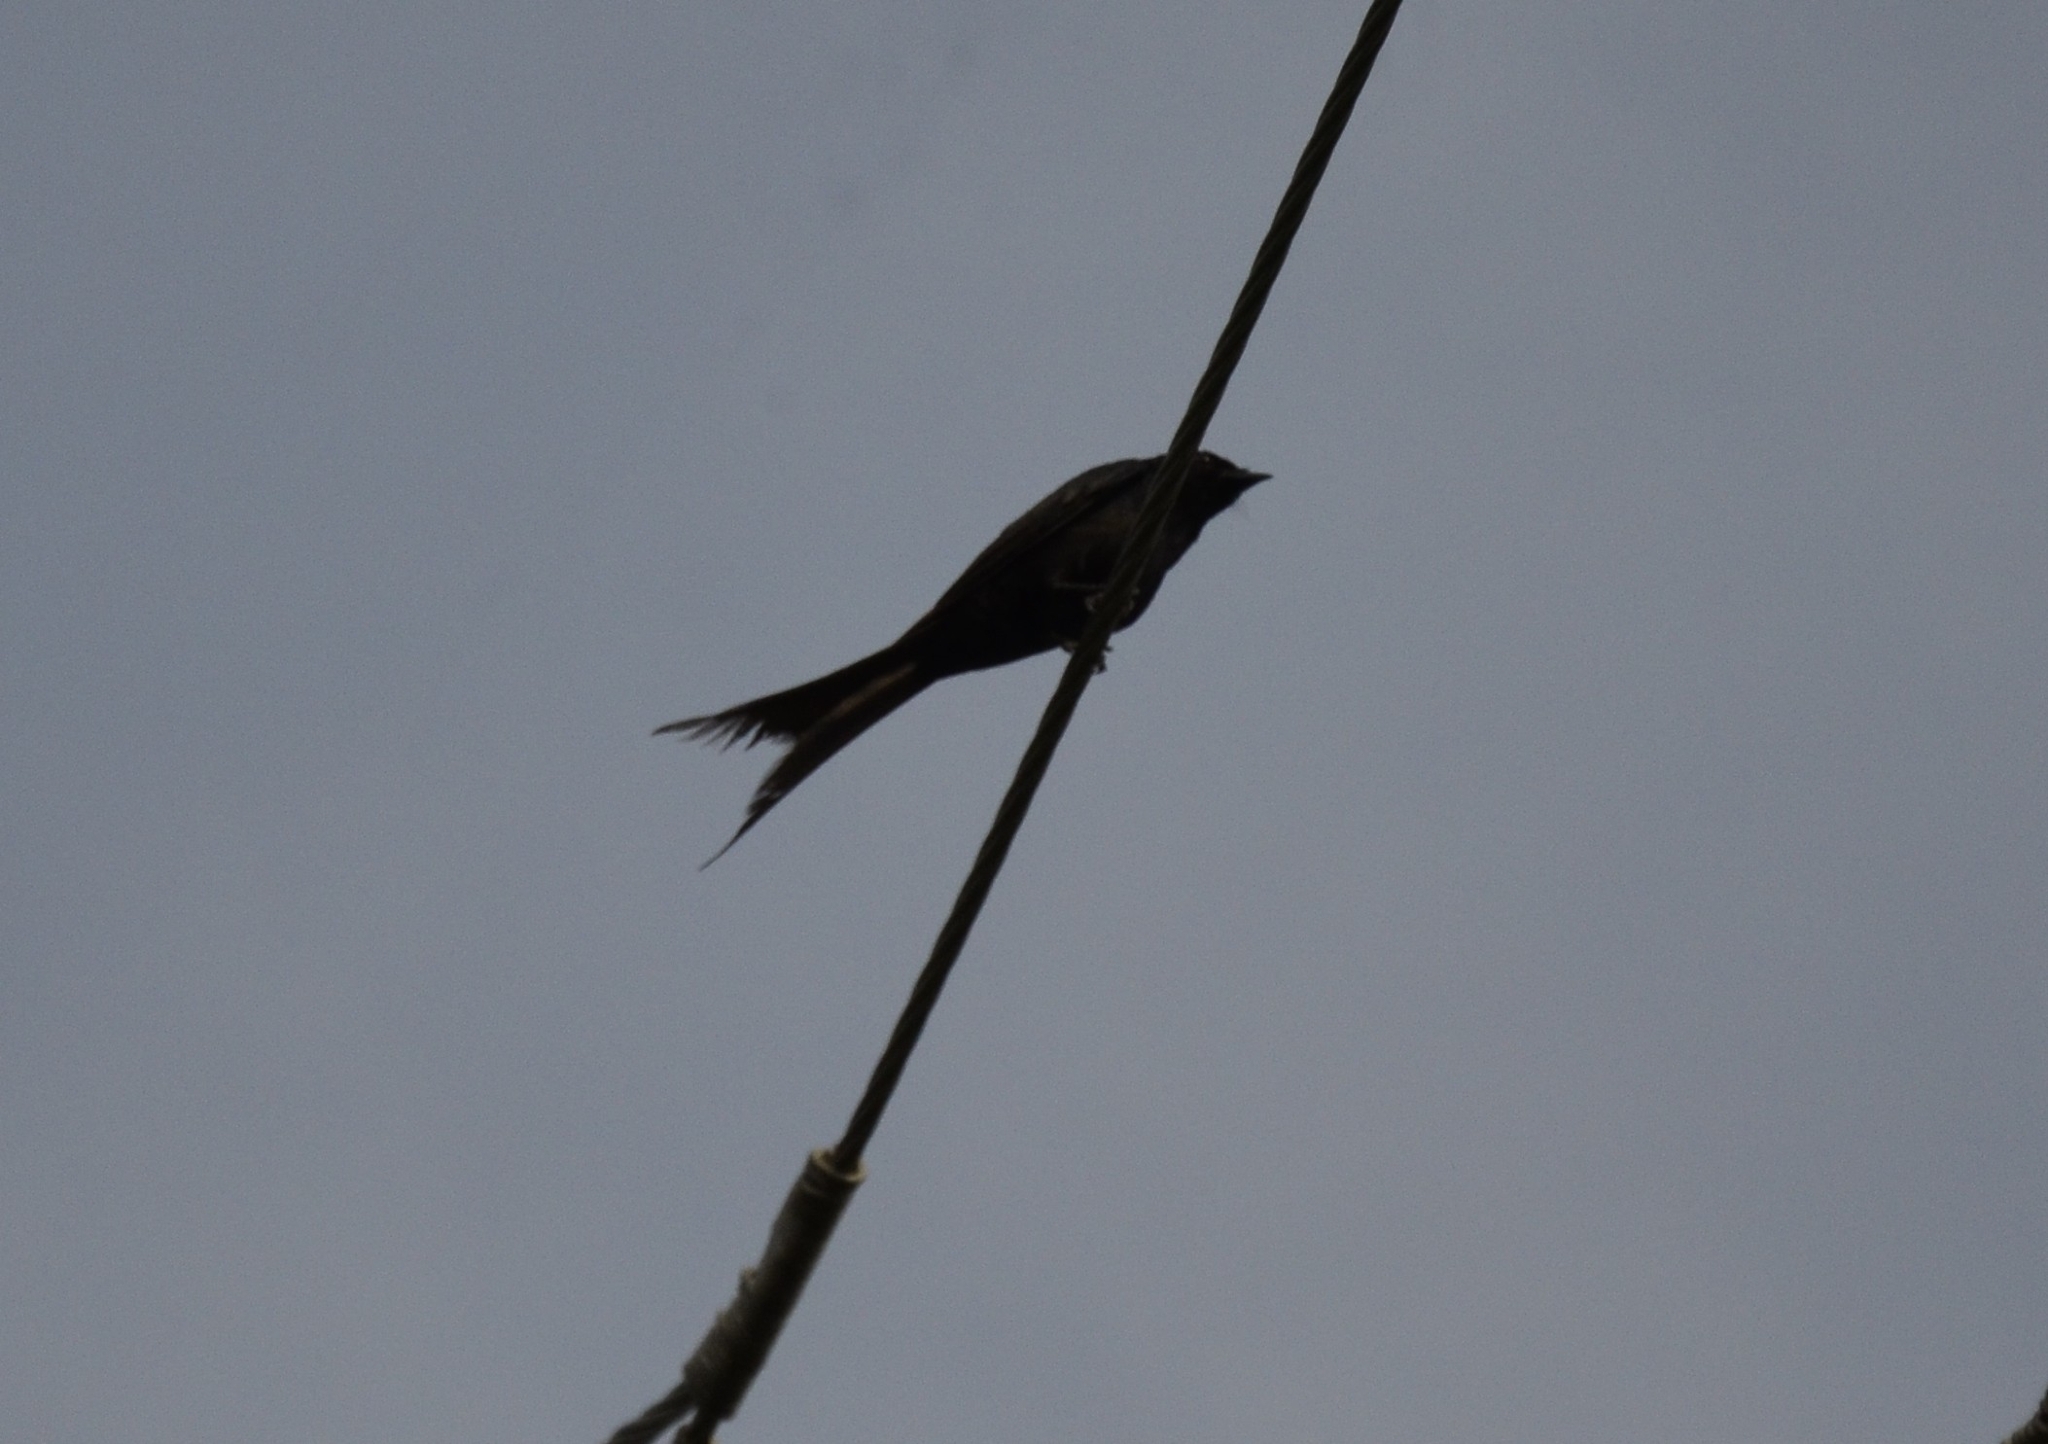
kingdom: Animalia
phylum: Chordata
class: Aves
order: Passeriformes
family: Dicruridae
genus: Dicrurus
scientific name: Dicrurus macrocercus
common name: Black drongo
